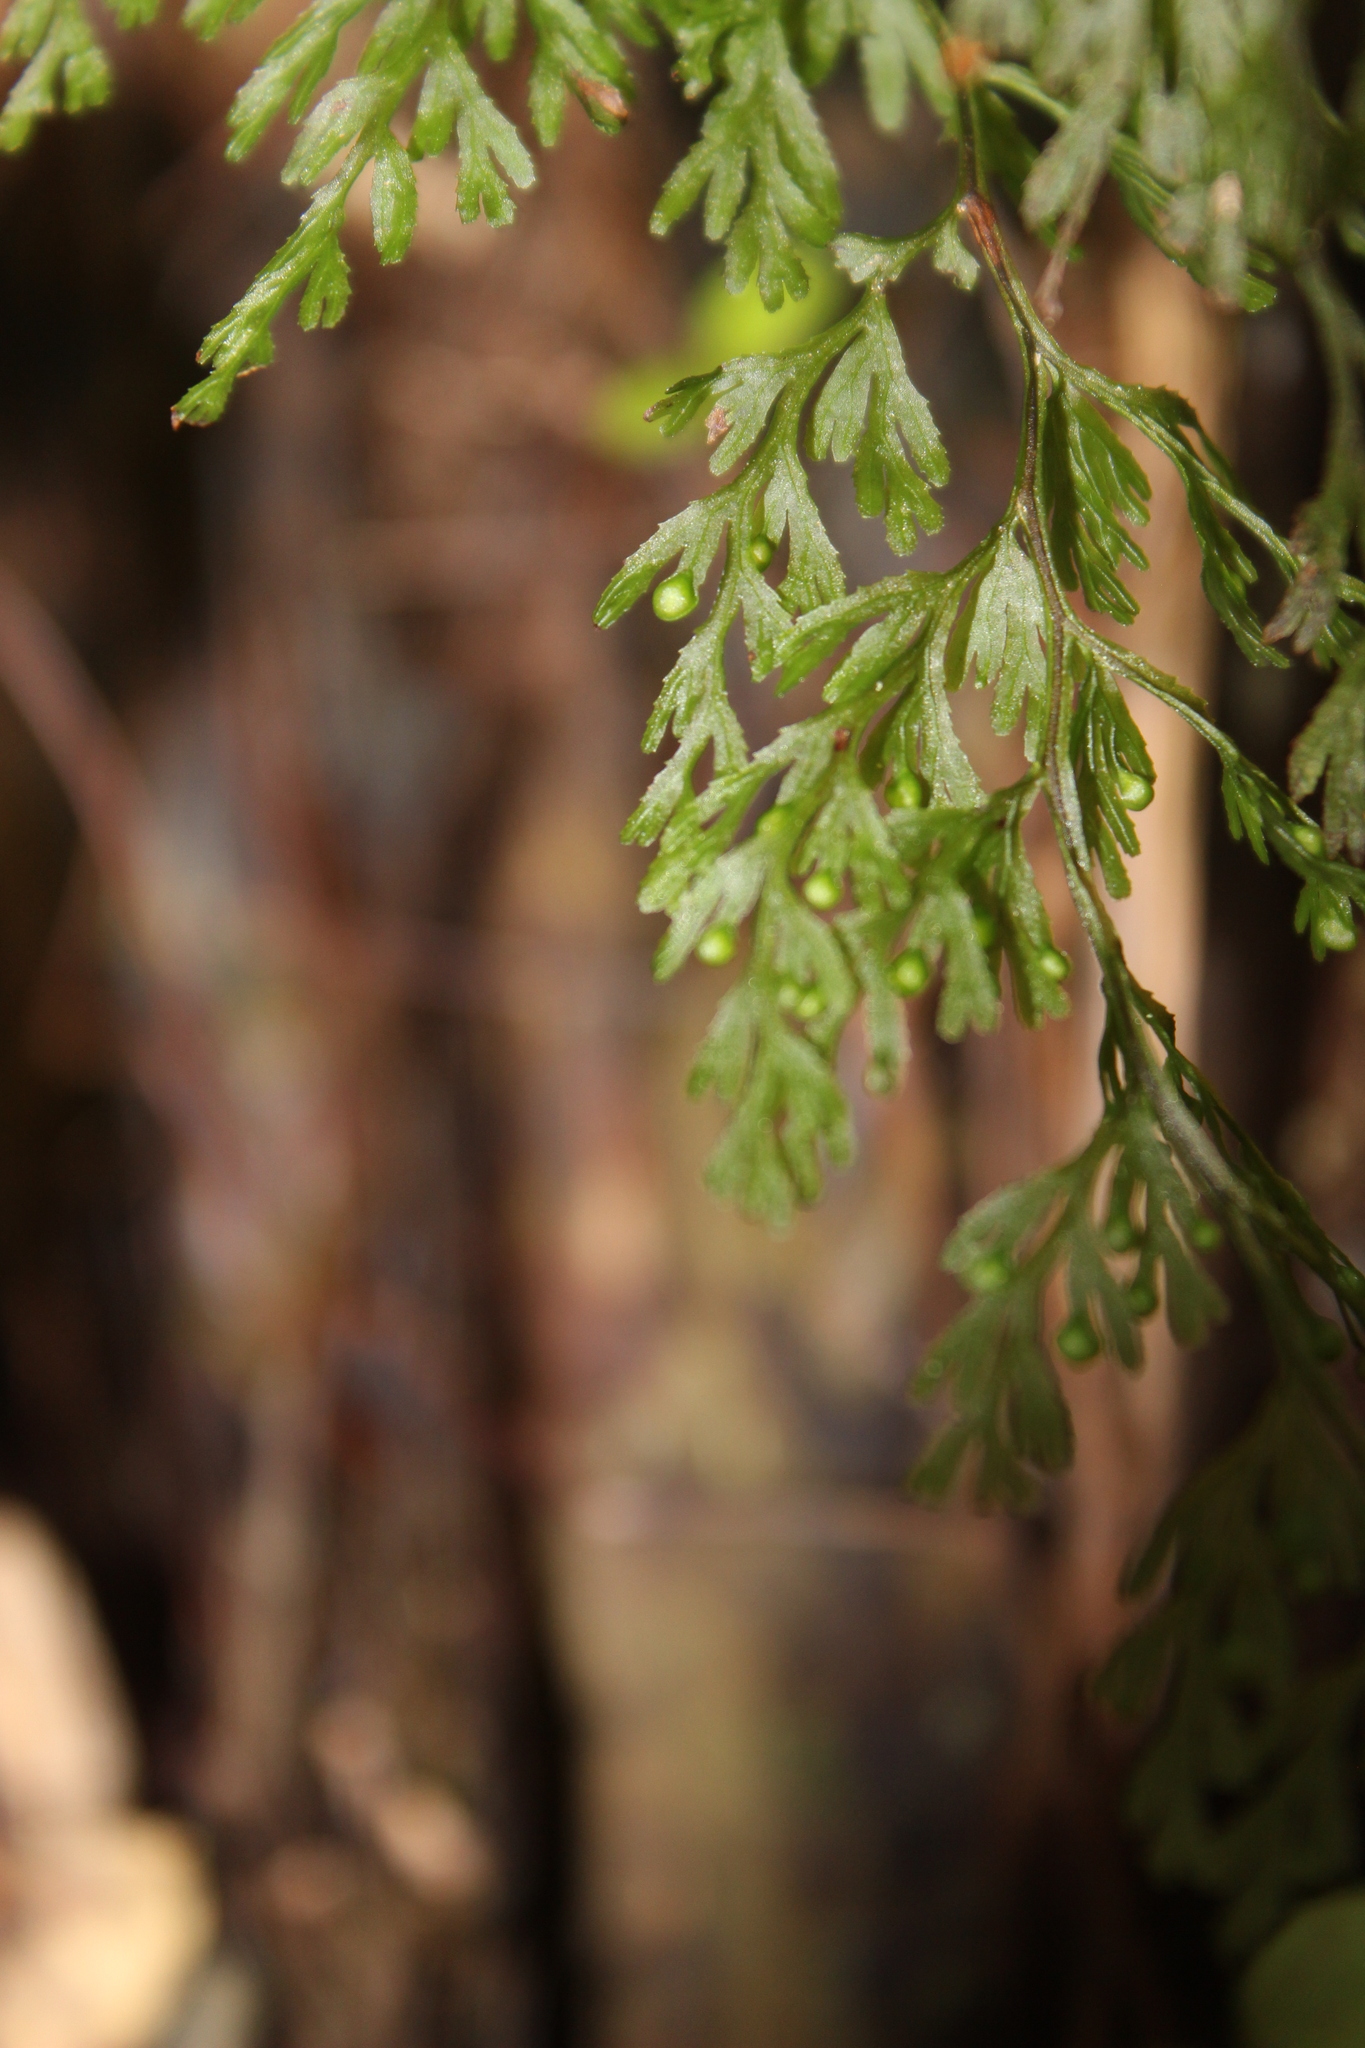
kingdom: Plantae
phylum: Tracheophyta
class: Polypodiopsida
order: Hymenophyllales
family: Hymenophyllaceae
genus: Hymenophyllum
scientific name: Hymenophyllum bivalve
